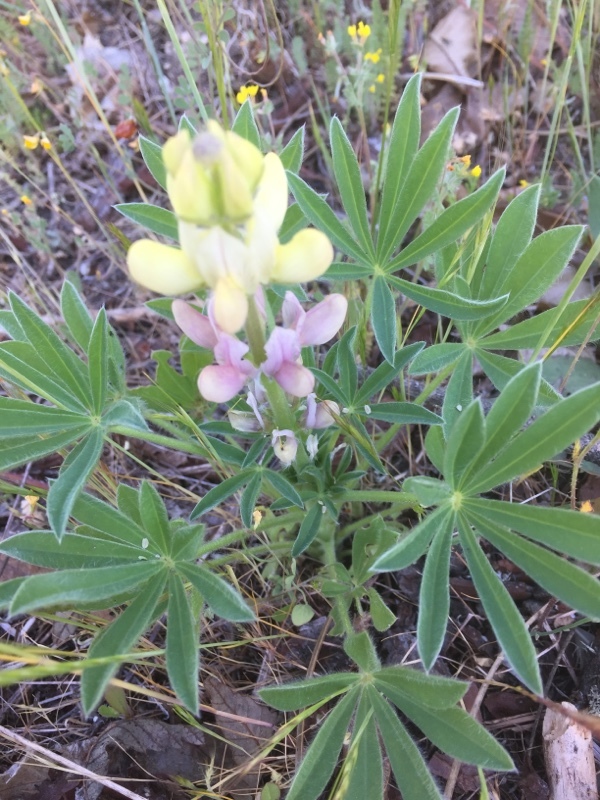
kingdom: Plantae
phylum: Tracheophyta
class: Magnoliopsida
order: Fabales
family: Fabaceae
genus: Lupinus
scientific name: Lupinus gredensis
